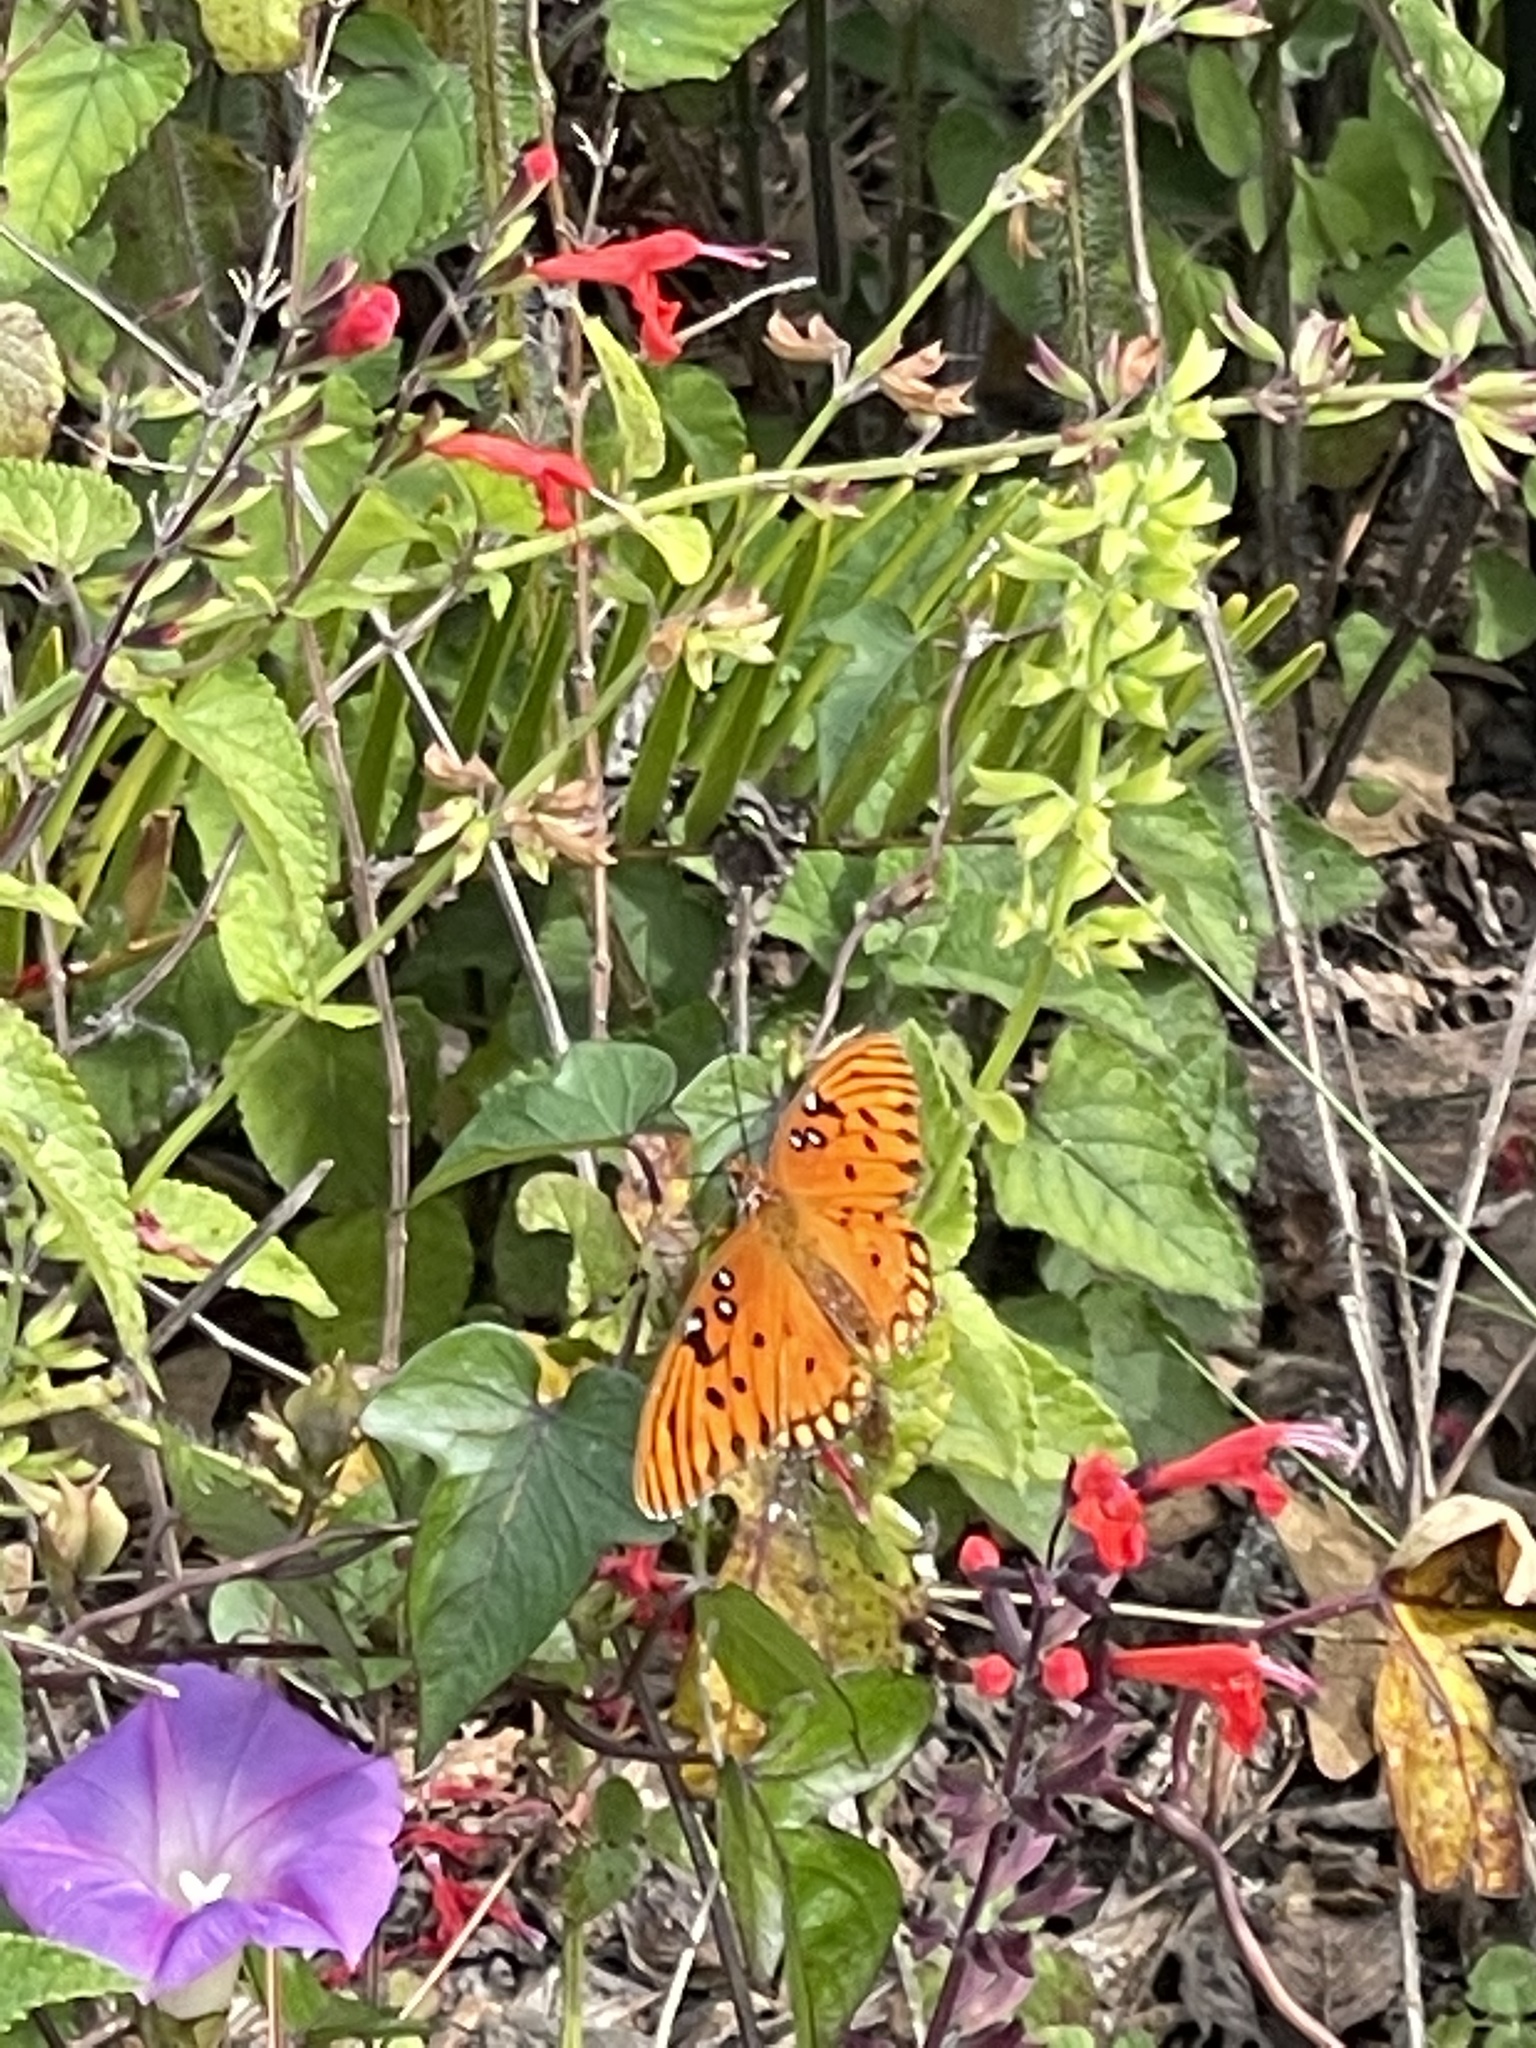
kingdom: Animalia
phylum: Arthropoda
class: Insecta
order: Lepidoptera
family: Nymphalidae
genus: Dione
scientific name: Dione vanillae
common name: Gulf fritillary
